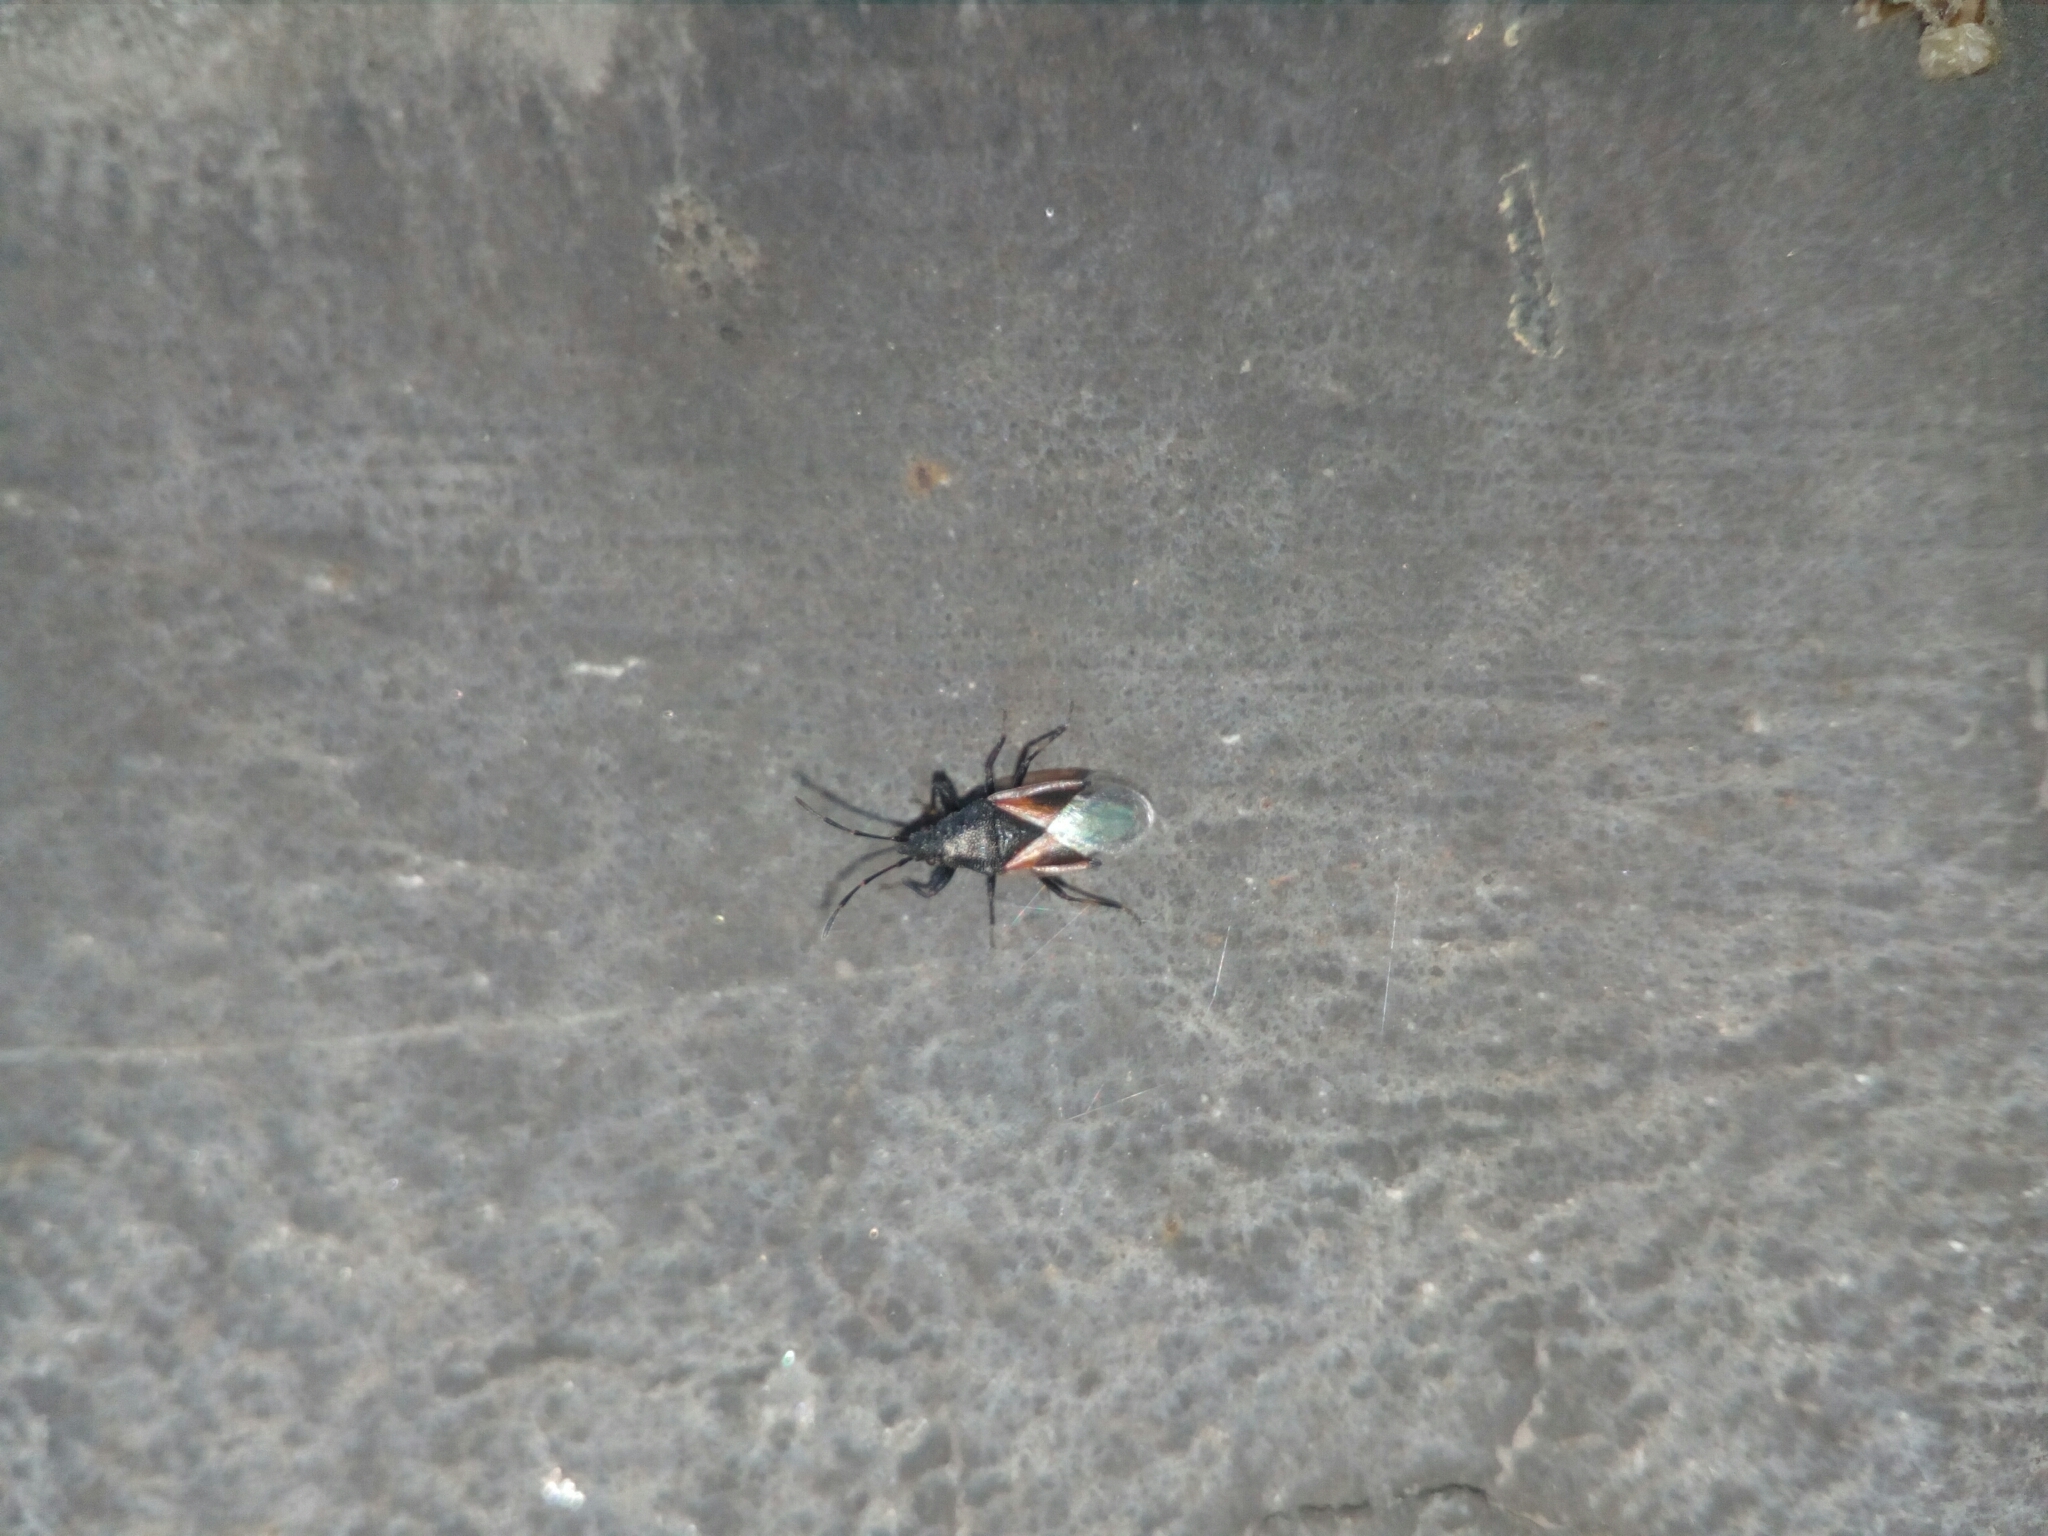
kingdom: Animalia
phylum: Arthropoda
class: Insecta
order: Hemiptera
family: Oxycarenidae
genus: Oxycarenus
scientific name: Oxycarenus lavaterae
